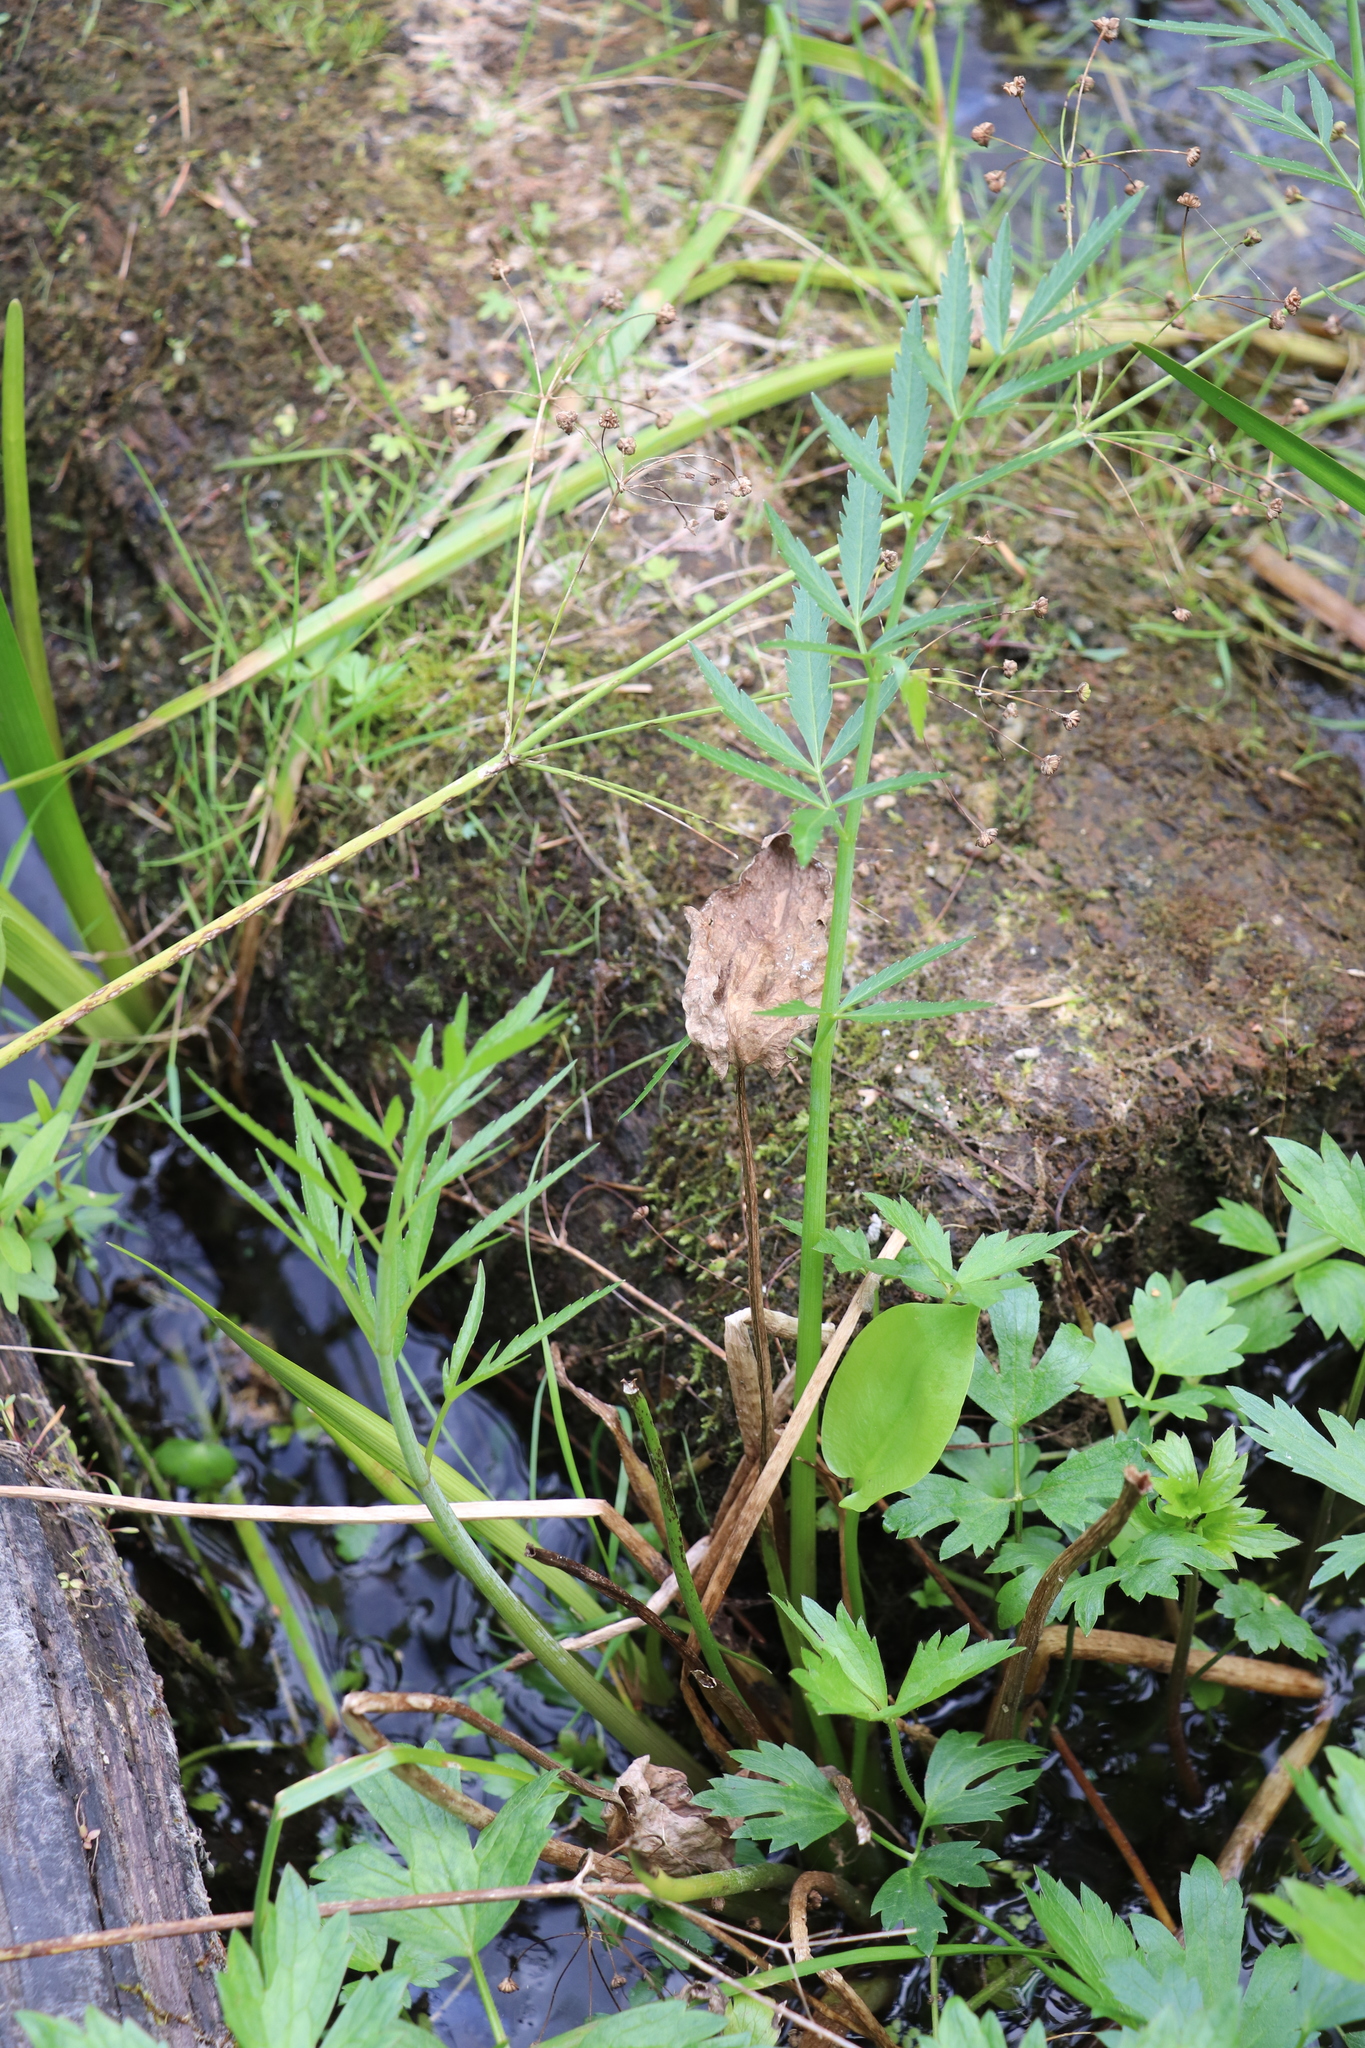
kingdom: Plantae
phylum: Tracheophyta
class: Magnoliopsida
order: Apiales
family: Apiaceae
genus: Cicuta
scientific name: Cicuta virosa
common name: Cowbane
